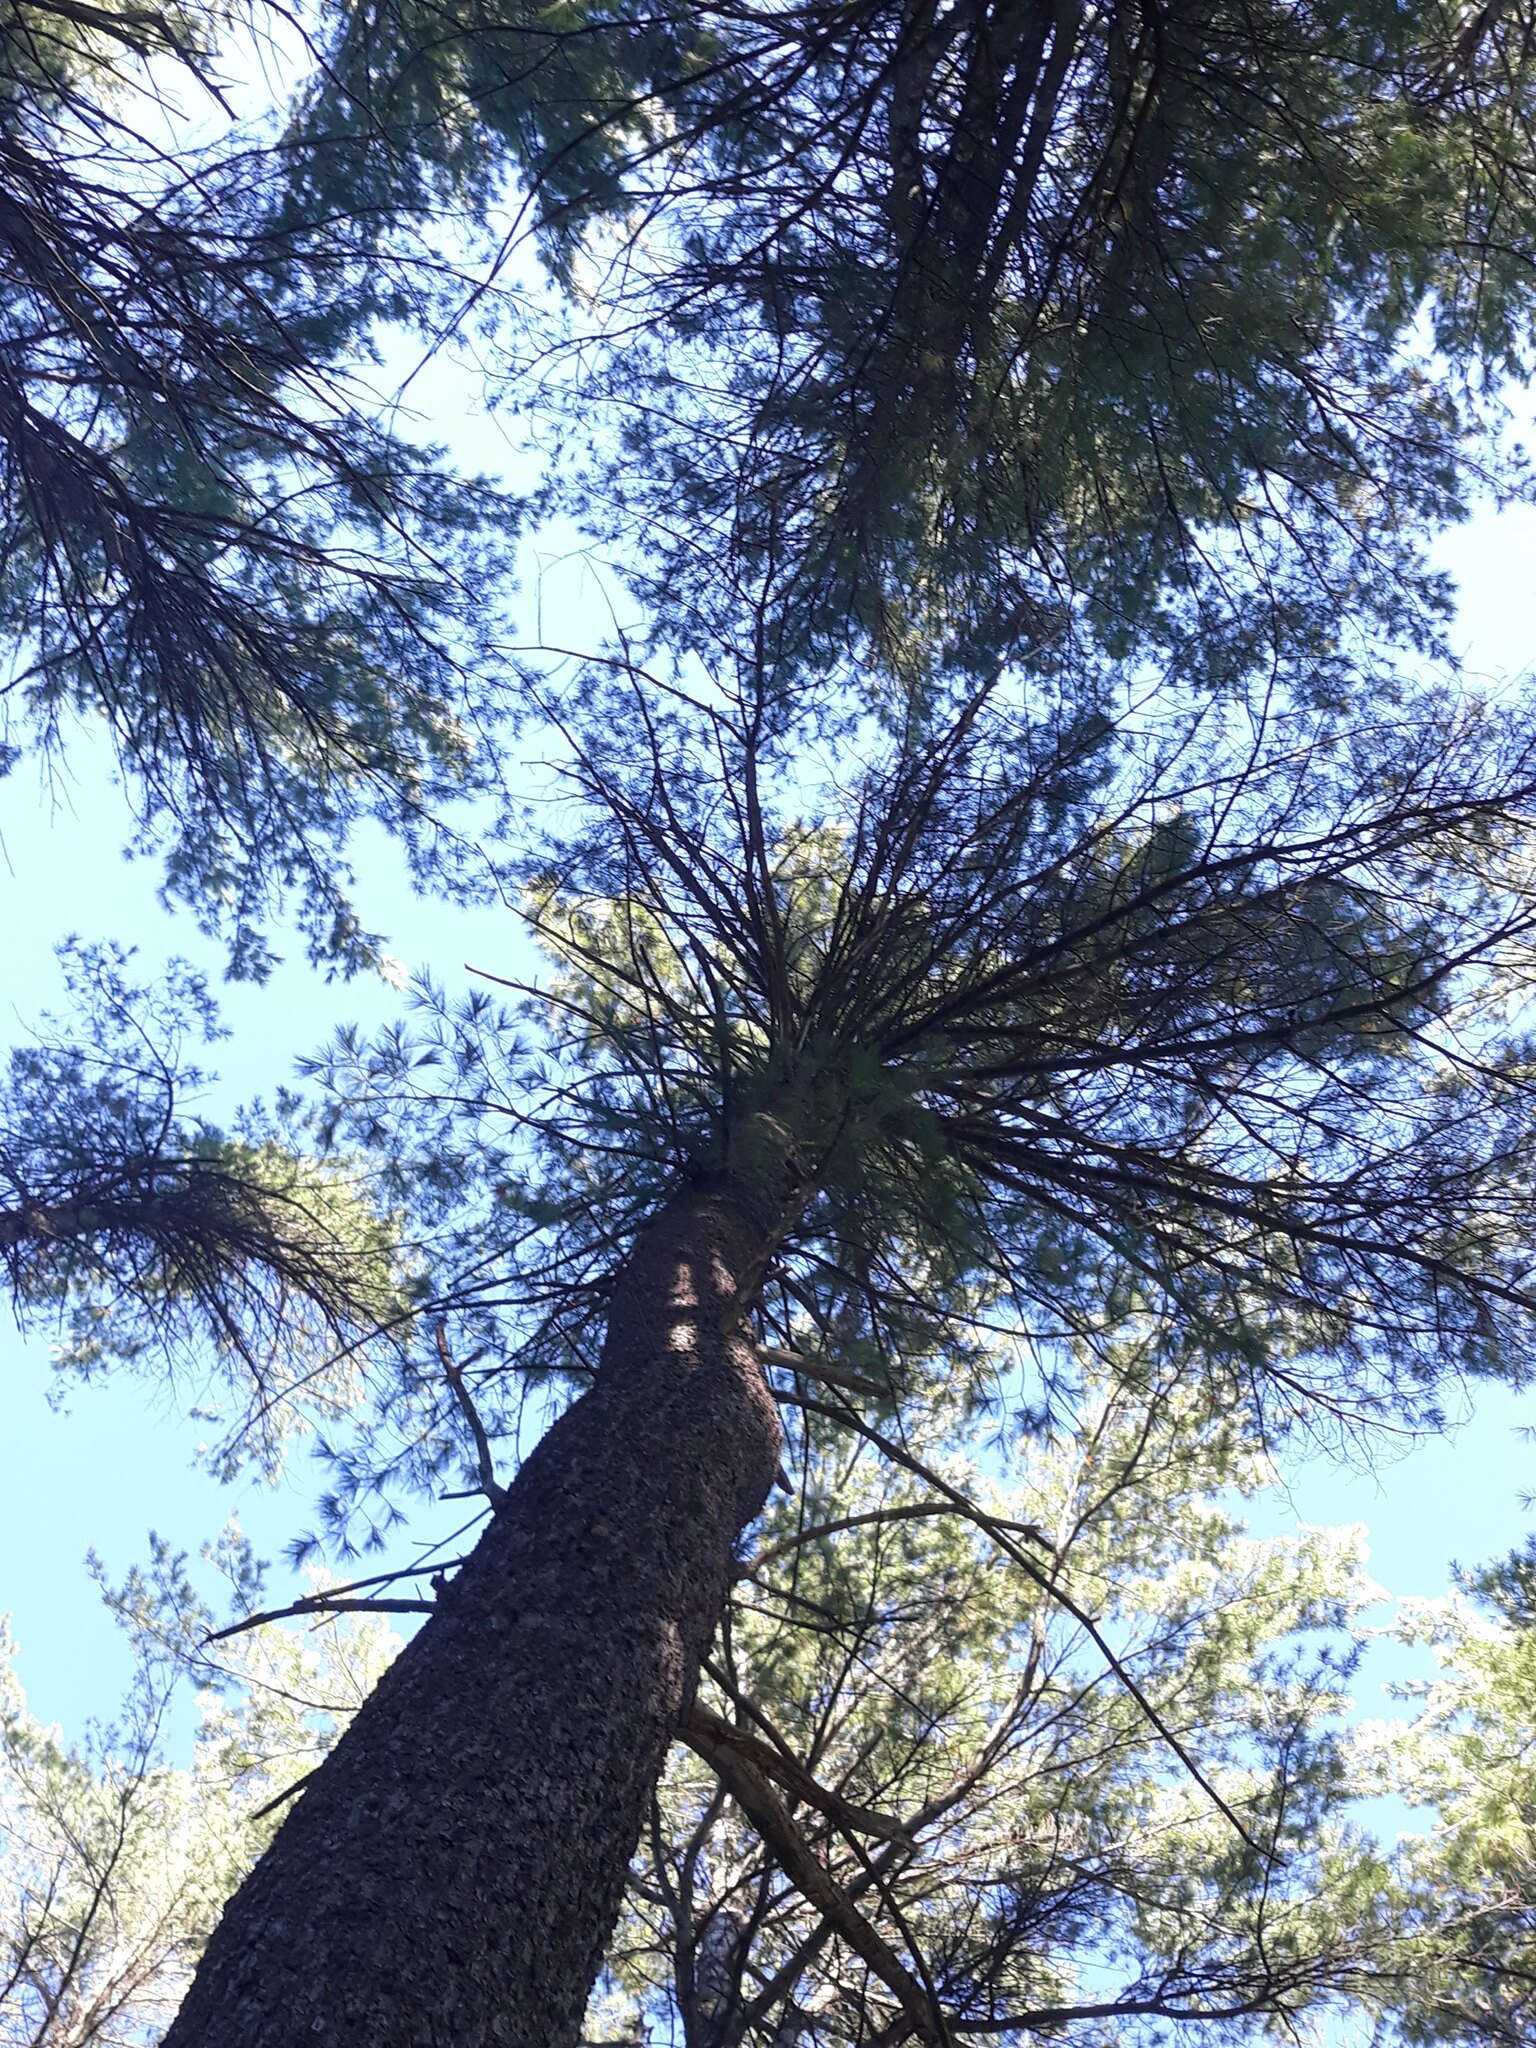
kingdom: Plantae
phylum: Tracheophyta
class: Pinopsida
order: Pinales
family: Pinaceae
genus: Pinus
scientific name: Pinus strobus
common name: Weymouth pine
